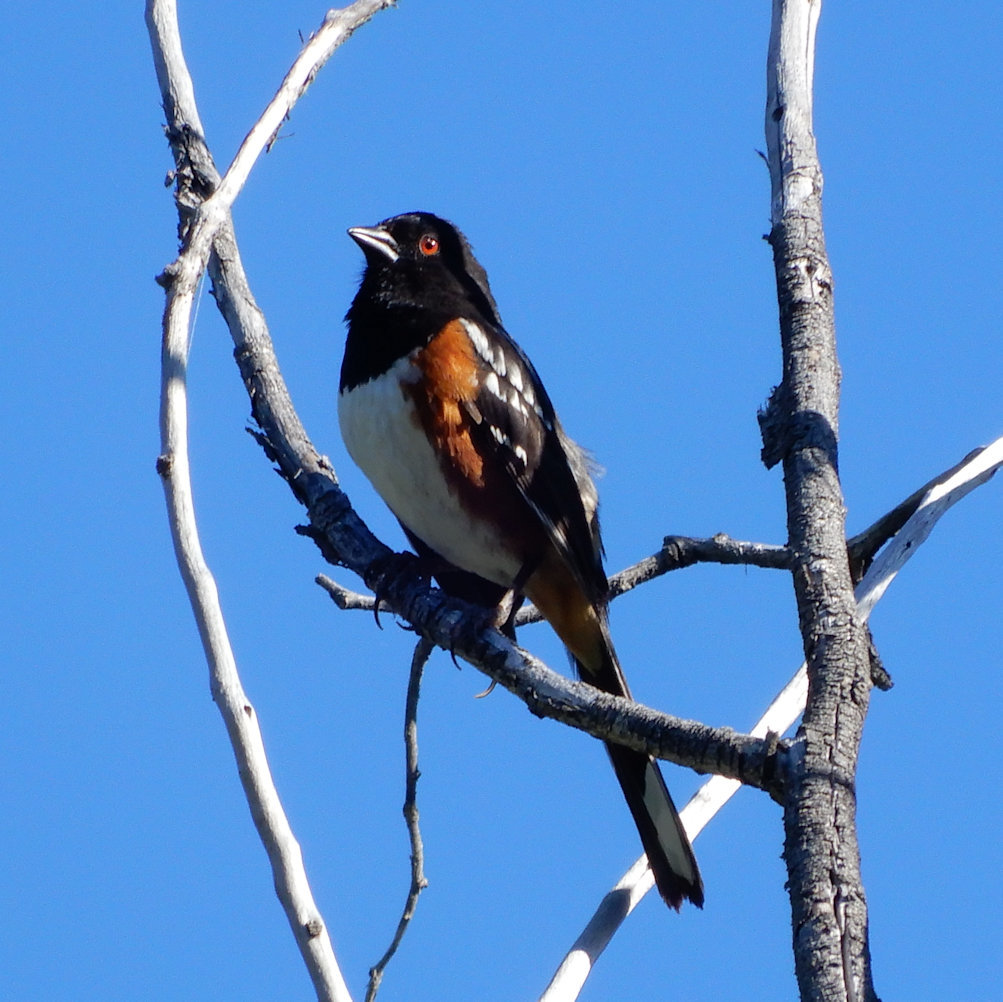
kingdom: Animalia
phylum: Chordata
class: Aves
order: Passeriformes
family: Passerellidae
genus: Pipilo
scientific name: Pipilo maculatus
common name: Spotted towhee
